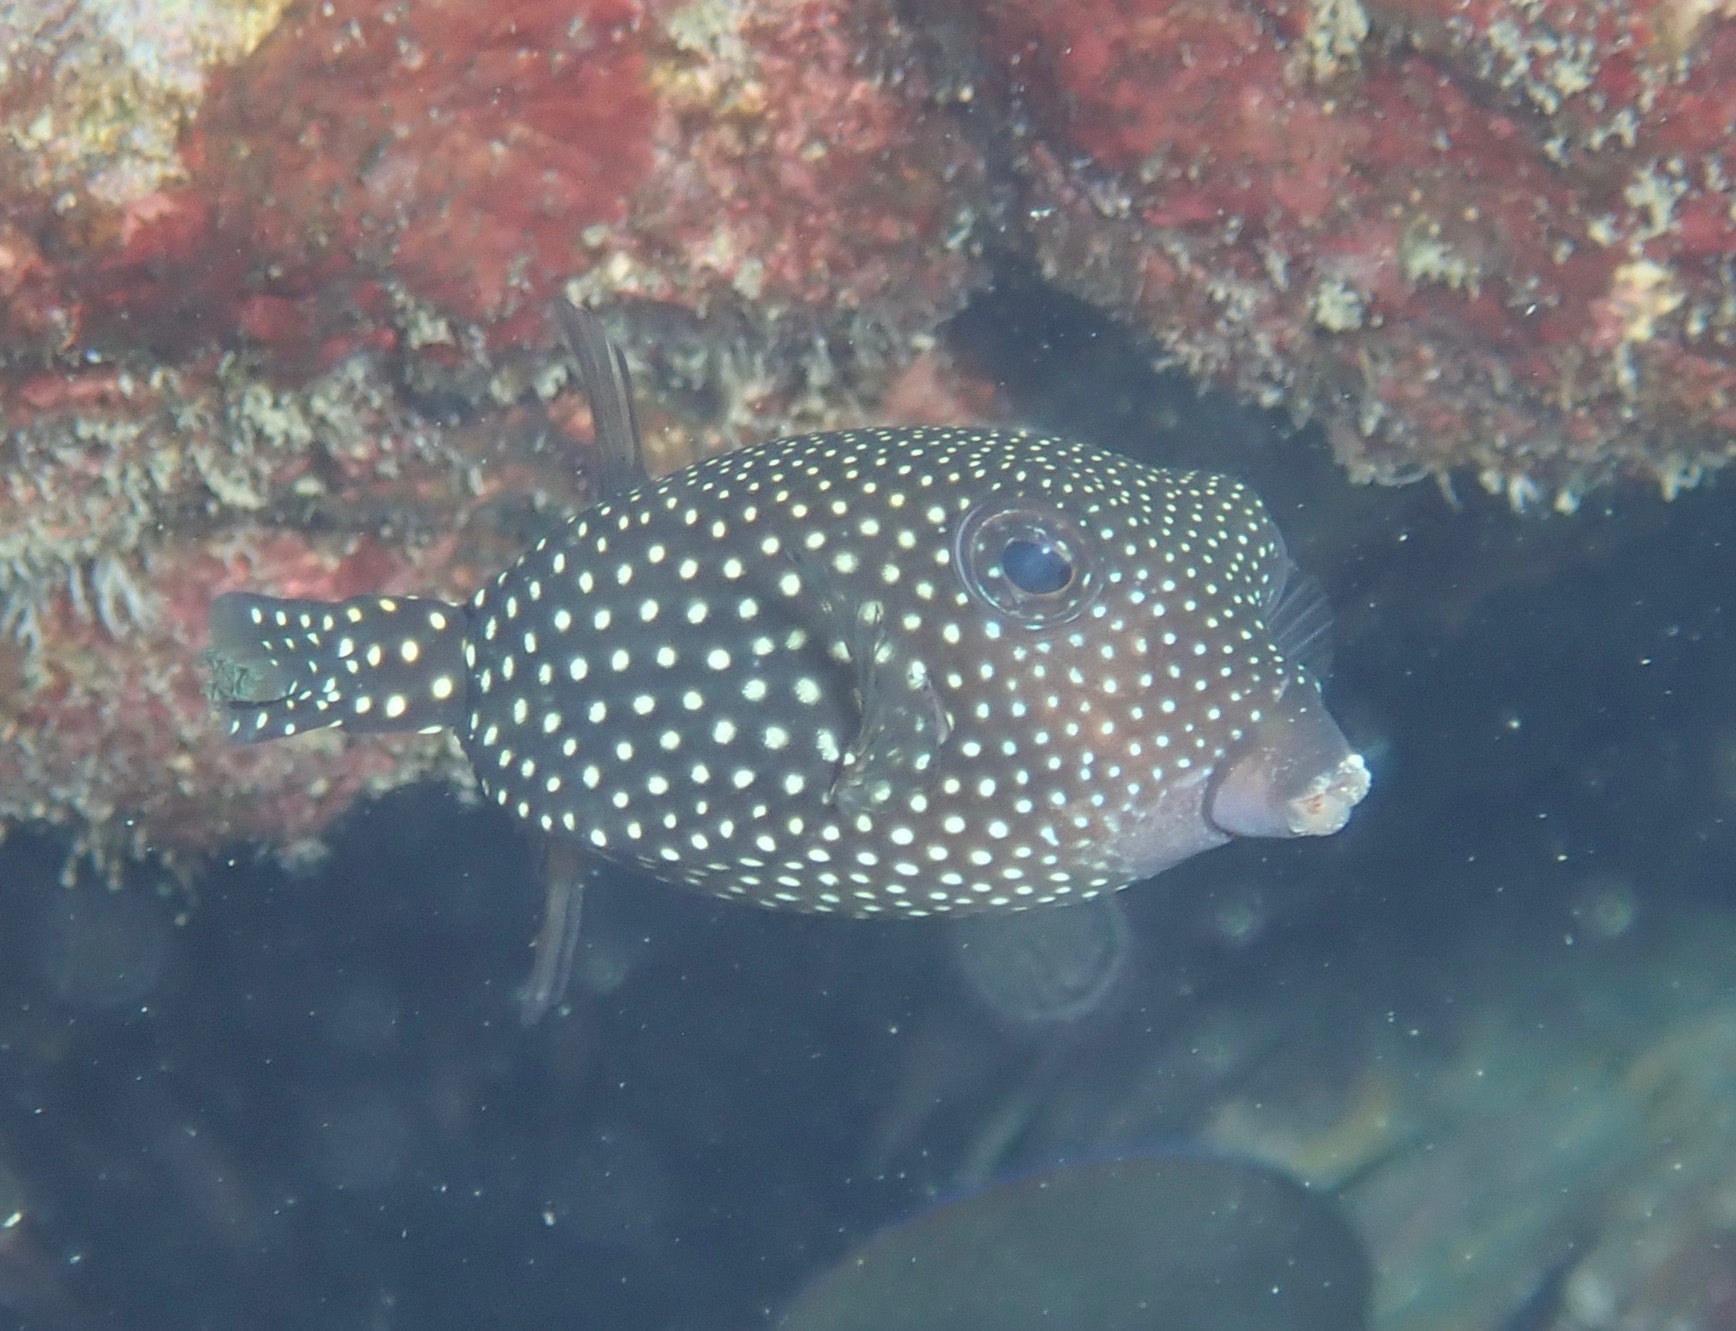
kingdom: Animalia
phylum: Chordata
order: Tetraodontiformes
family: Ostraciidae
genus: Ostracion
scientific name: Ostracion meleagris
